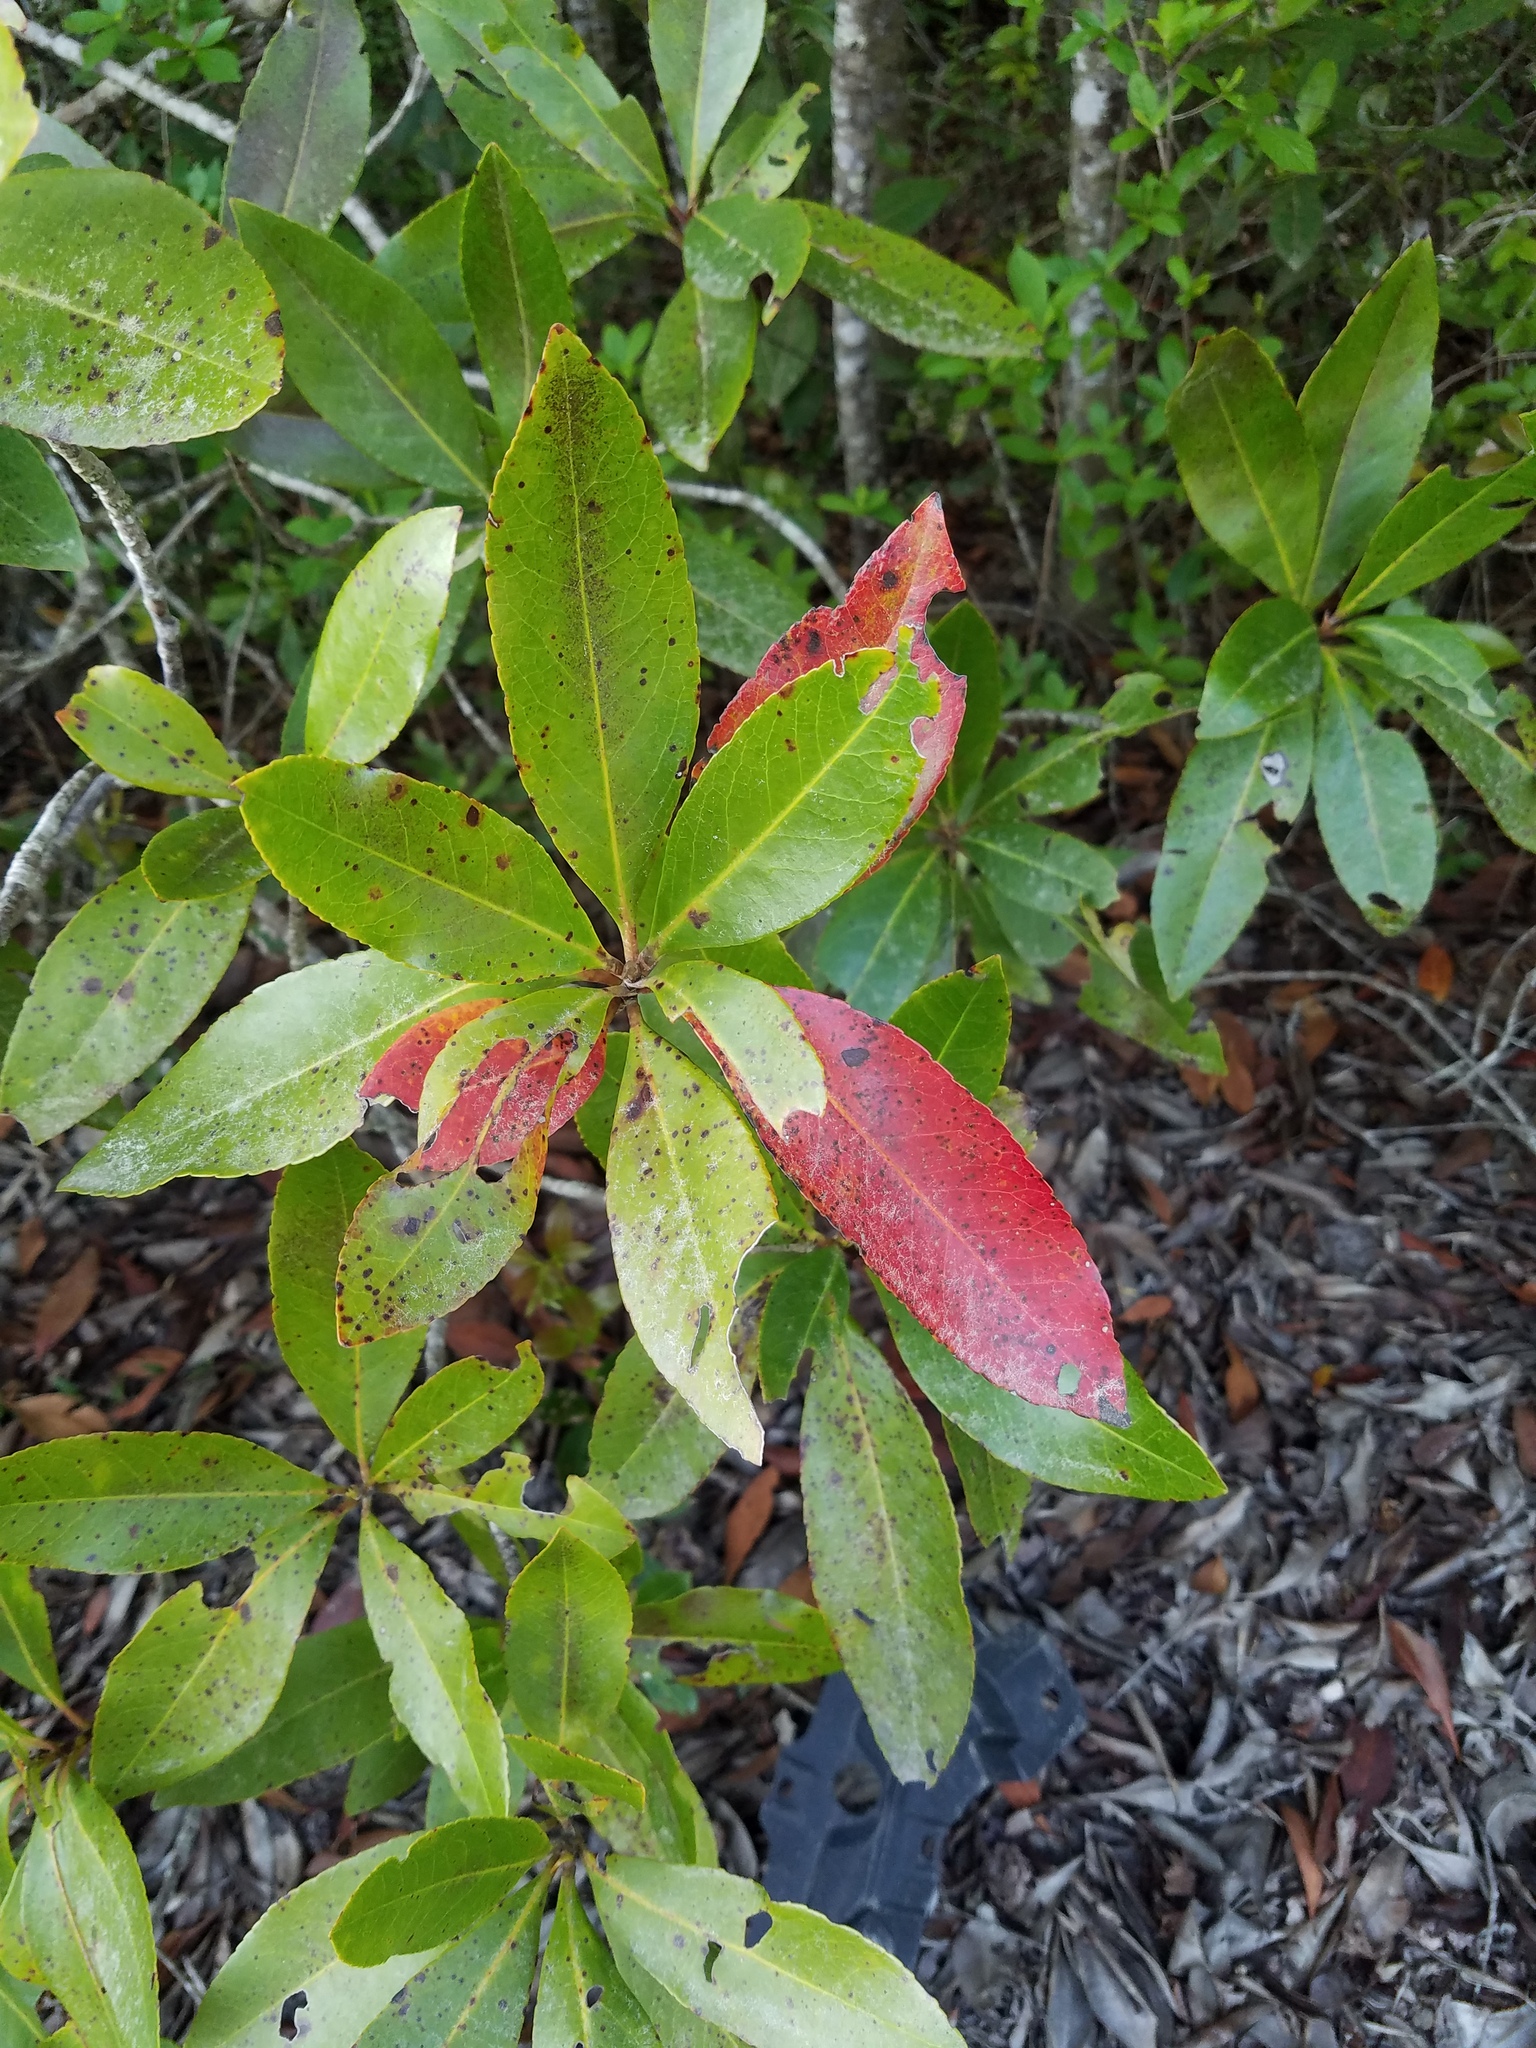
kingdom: Plantae
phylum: Tracheophyta
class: Magnoliopsida
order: Ericales
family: Theaceae
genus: Gordonia
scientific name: Gordonia lasianthus
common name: Loblolly bay
